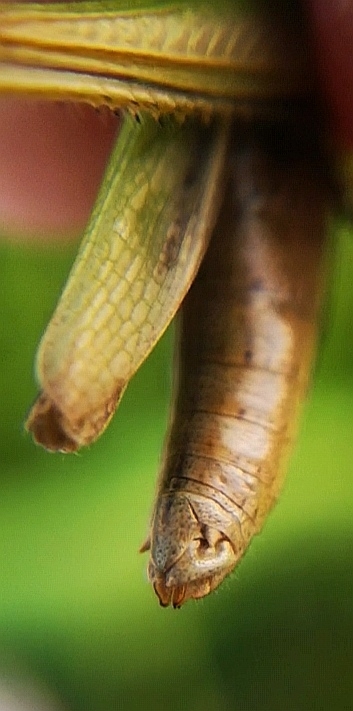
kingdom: Animalia
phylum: Arthropoda
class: Insecta
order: Orthoptera
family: Acrididae
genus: Chorthippus
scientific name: Chorthippus albomarginatus
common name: Lesser marsh grasshopper
